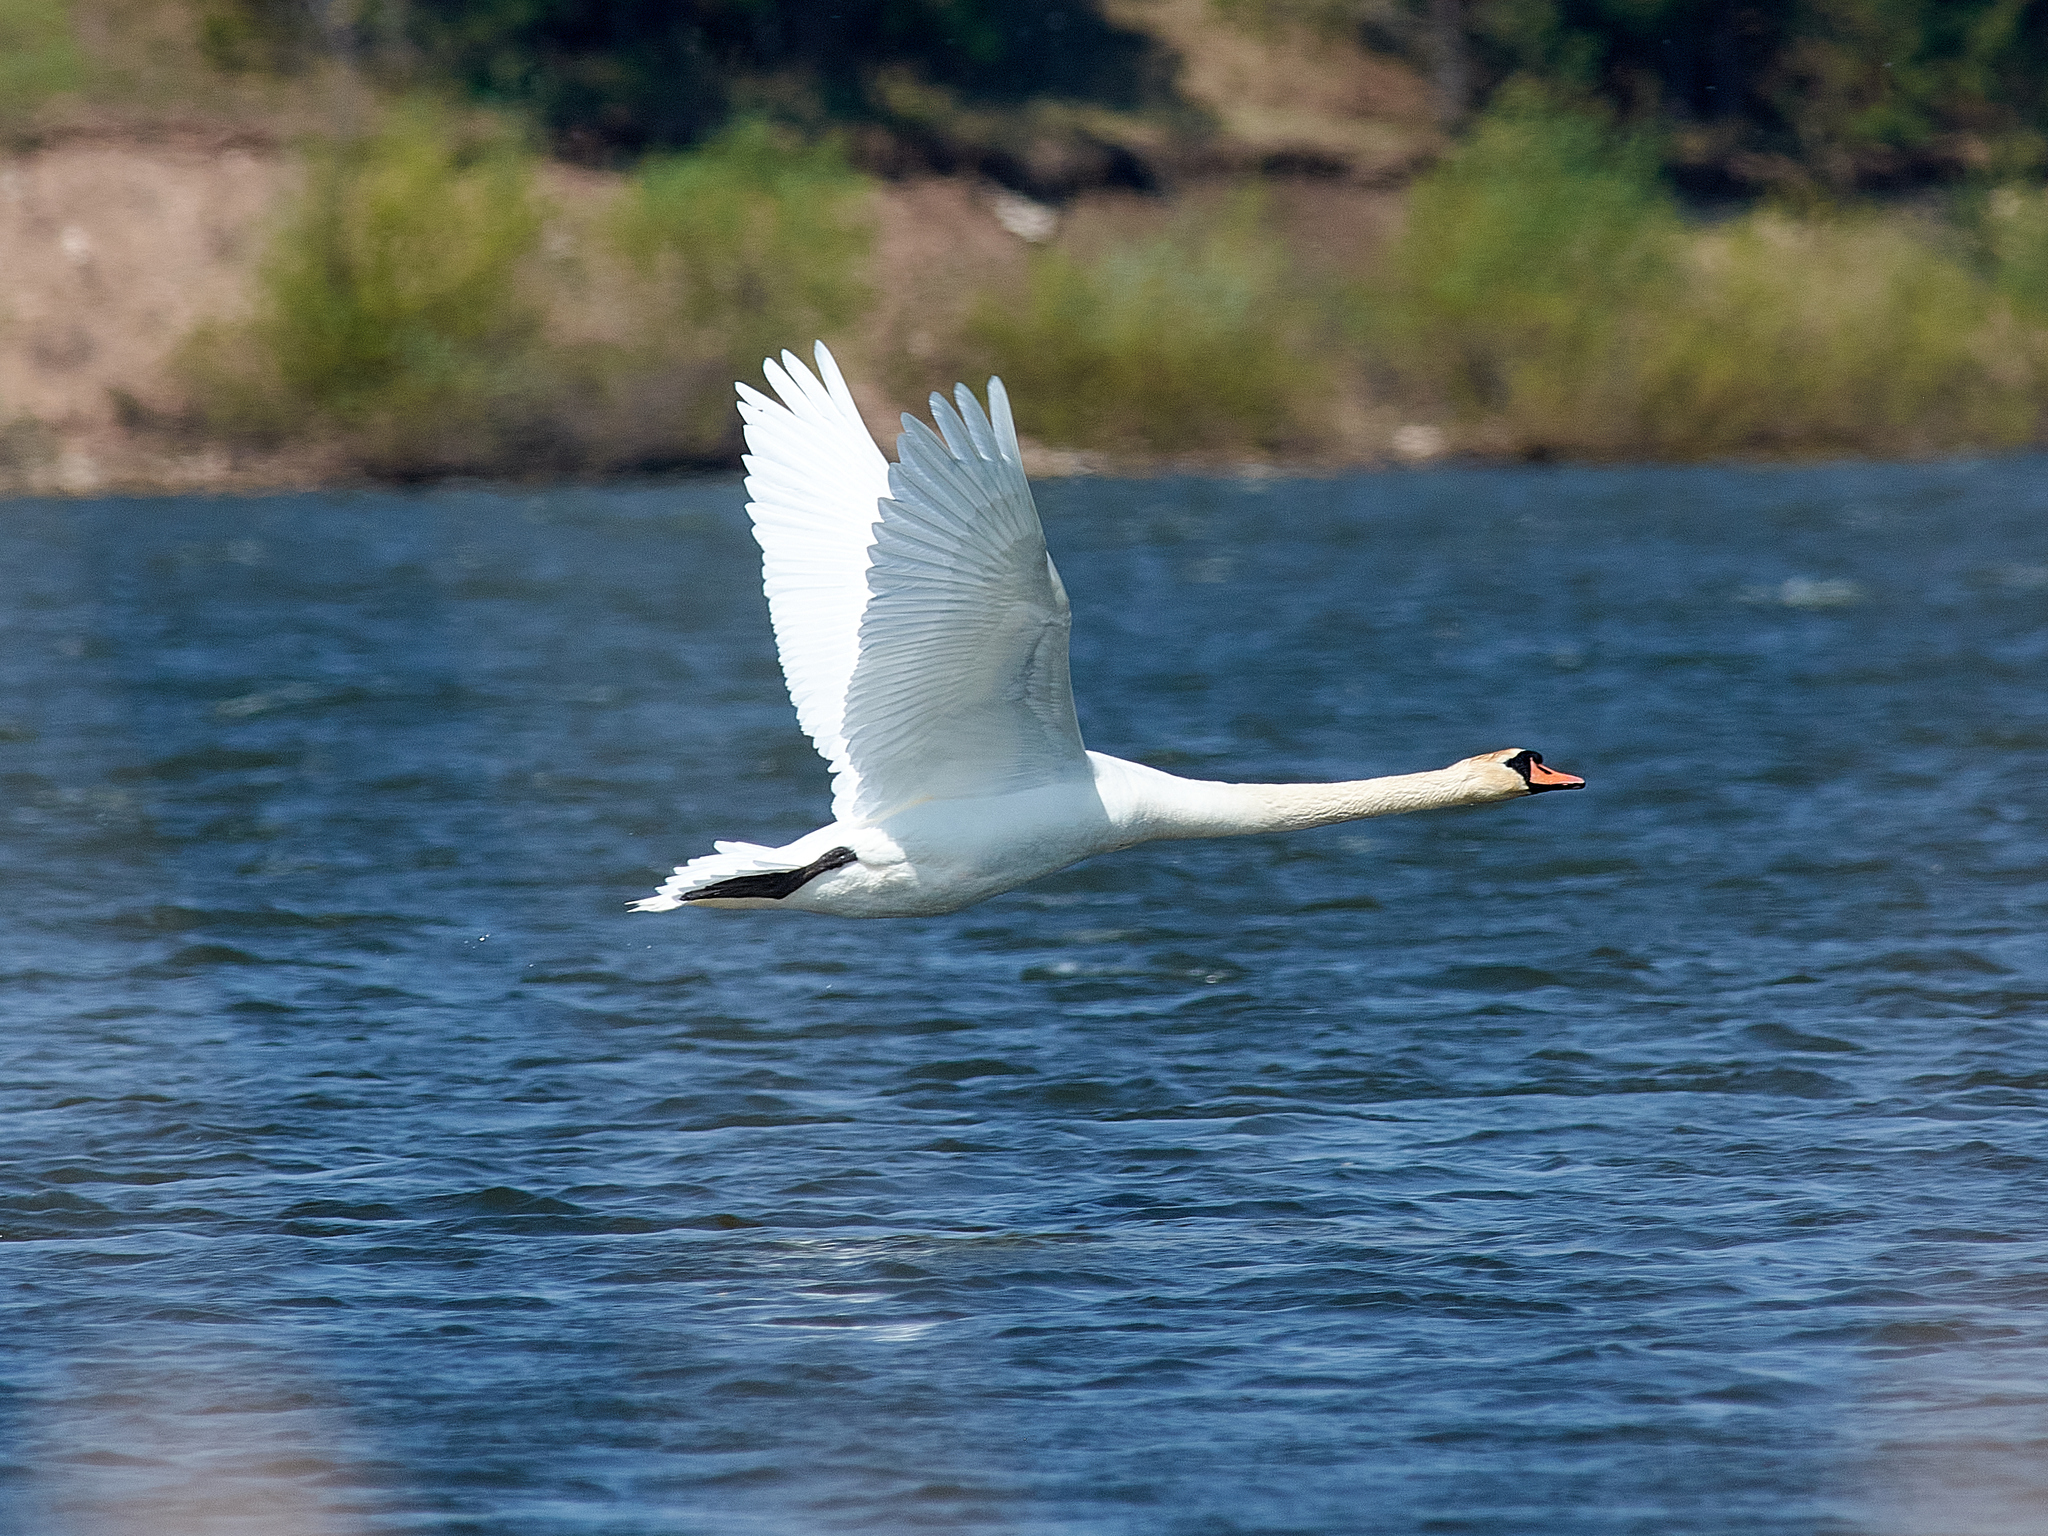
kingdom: Animalia
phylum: Chordata
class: Aves
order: Anseriformes
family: Anatidae
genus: Cygnus
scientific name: Cygnus olor
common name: Mute swan
